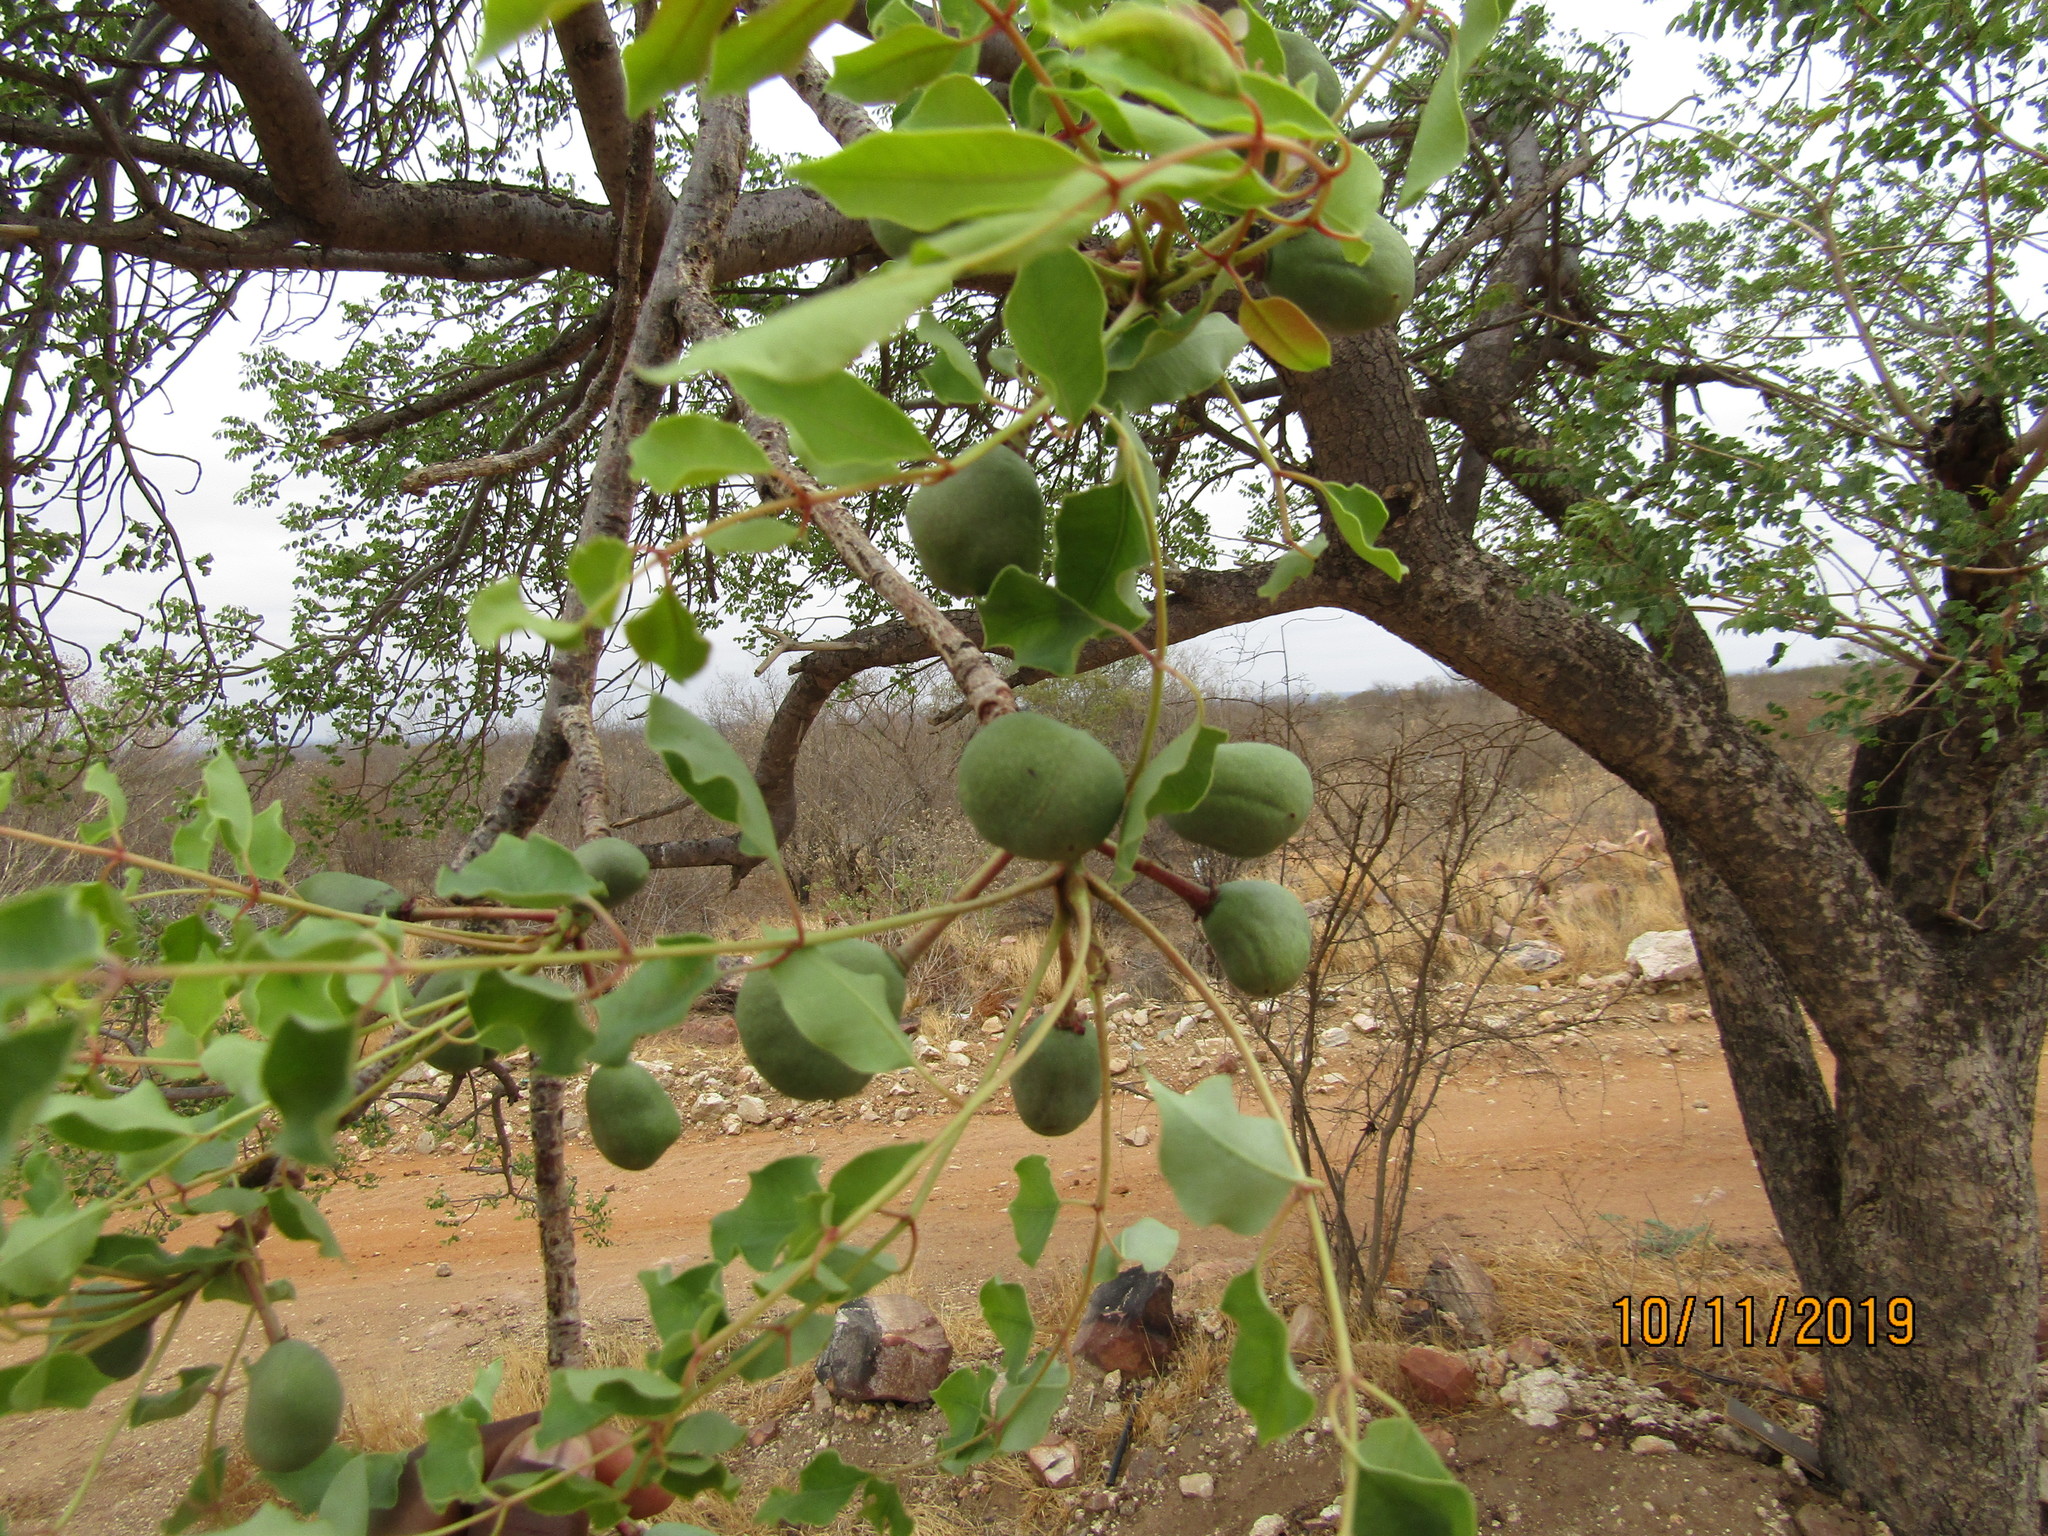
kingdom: Plantae
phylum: Tracheophyta
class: Magnoliopsida
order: Sapindales
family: Anacardiaceae
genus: Sclerocarya
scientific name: Sclerocarya birrea
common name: Marula
